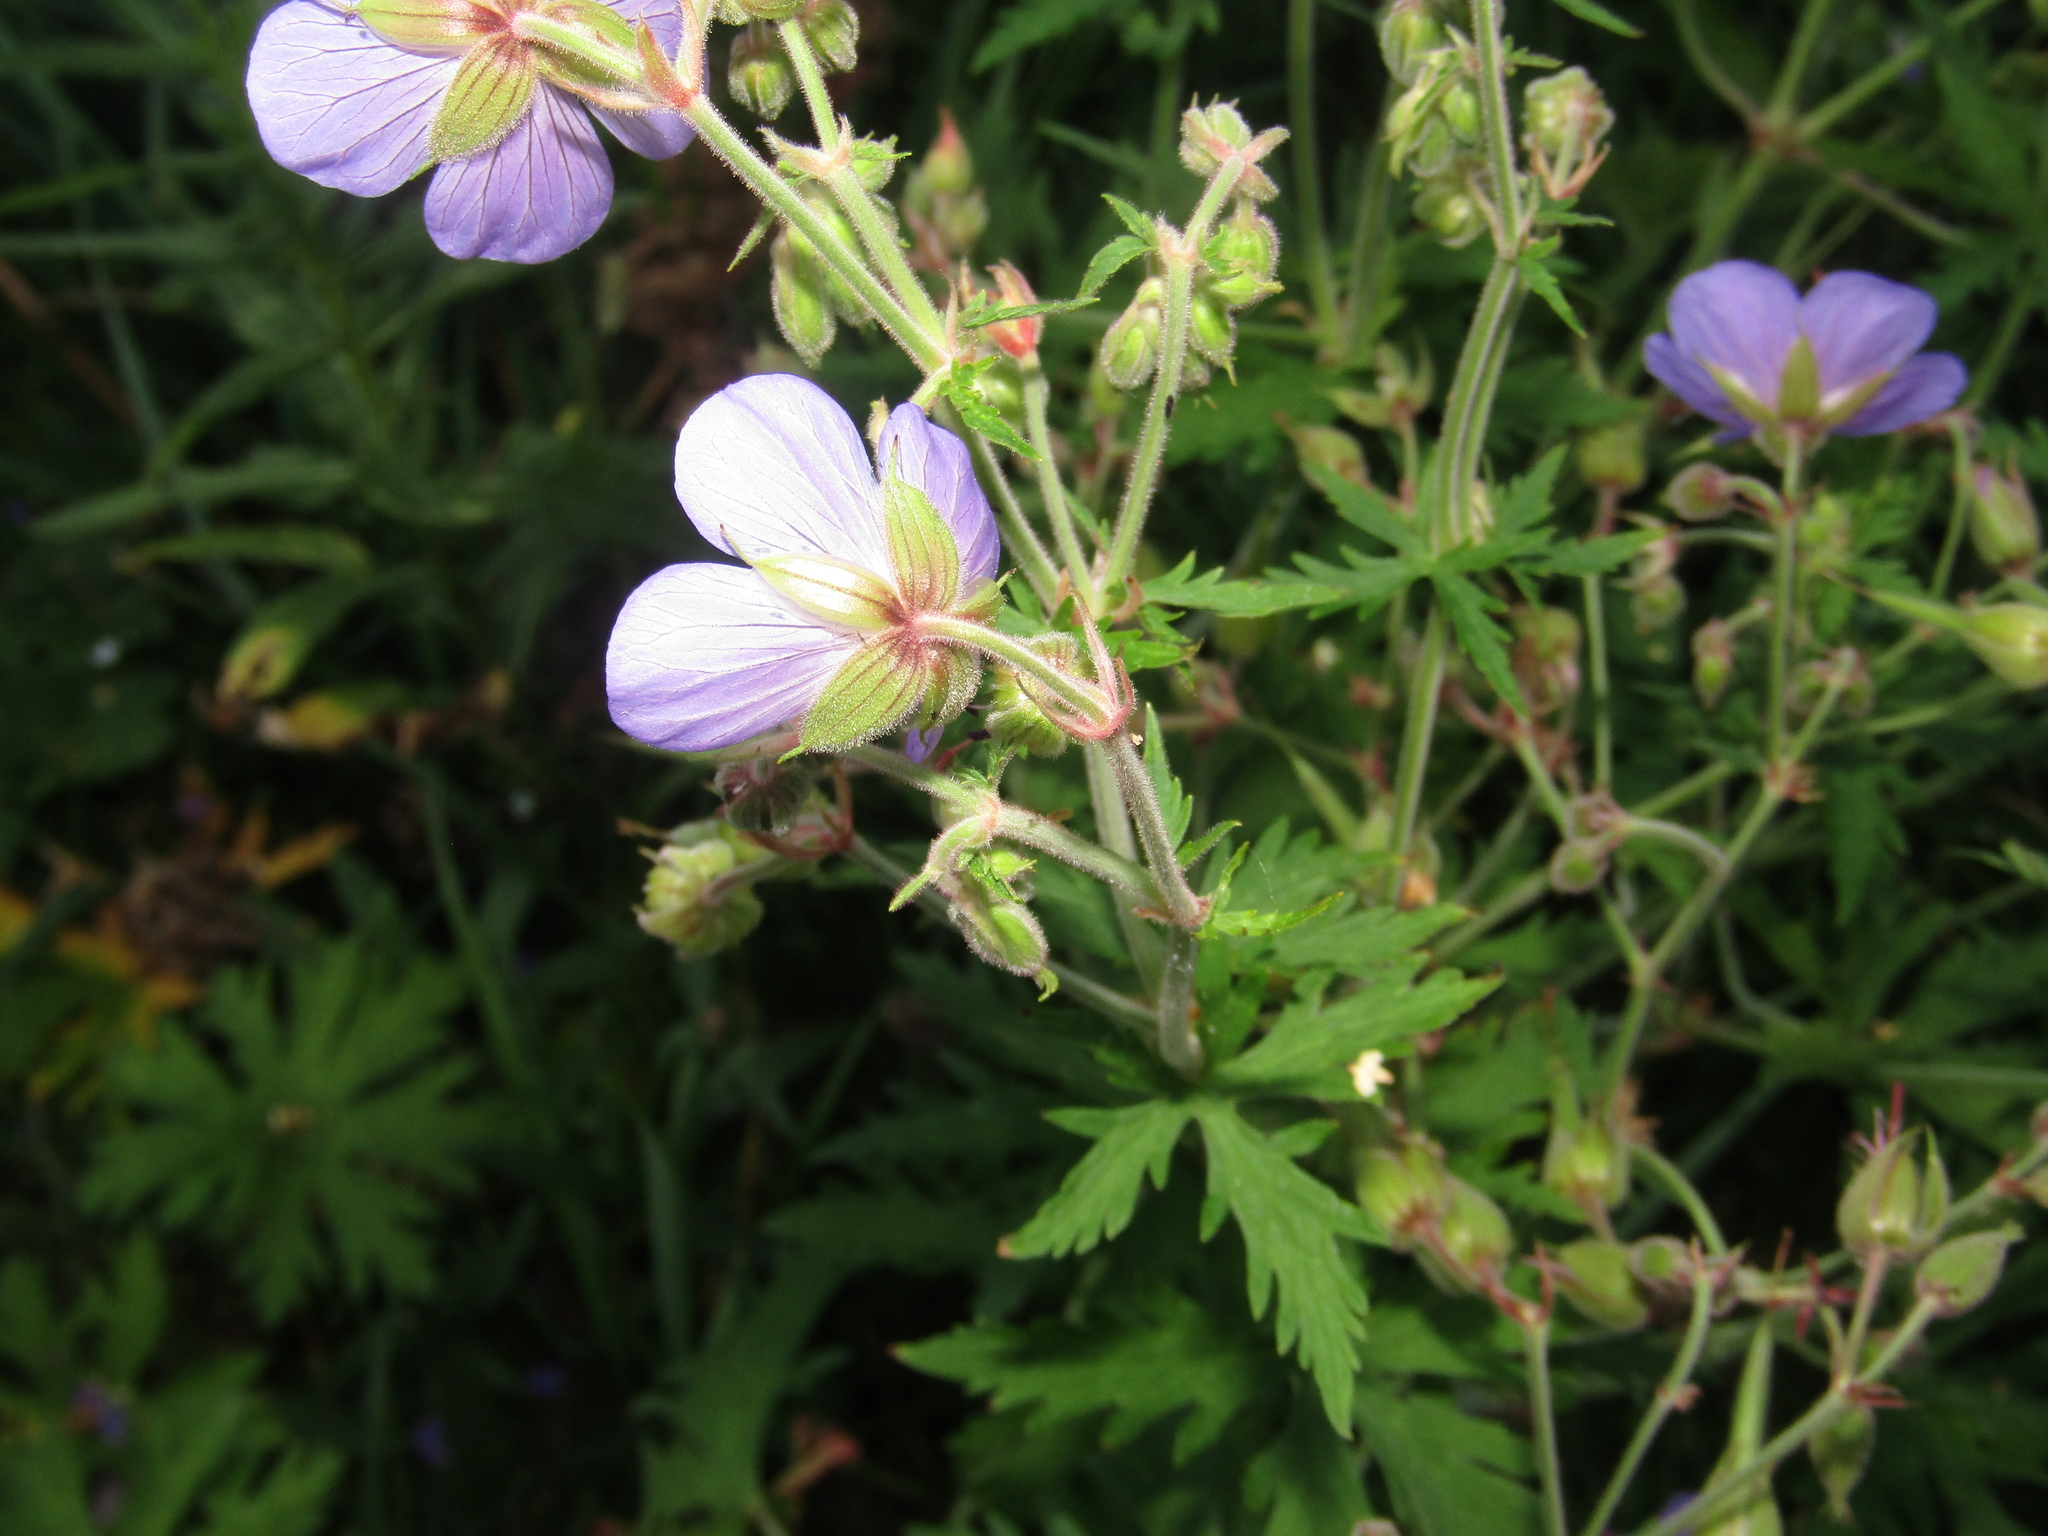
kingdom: Plantae
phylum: Tracheophyta
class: Magnoliopsida
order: Geraniales
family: Geraniaceae
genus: Geranium
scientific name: Geranium pratense
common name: Meadow crane's-bill
